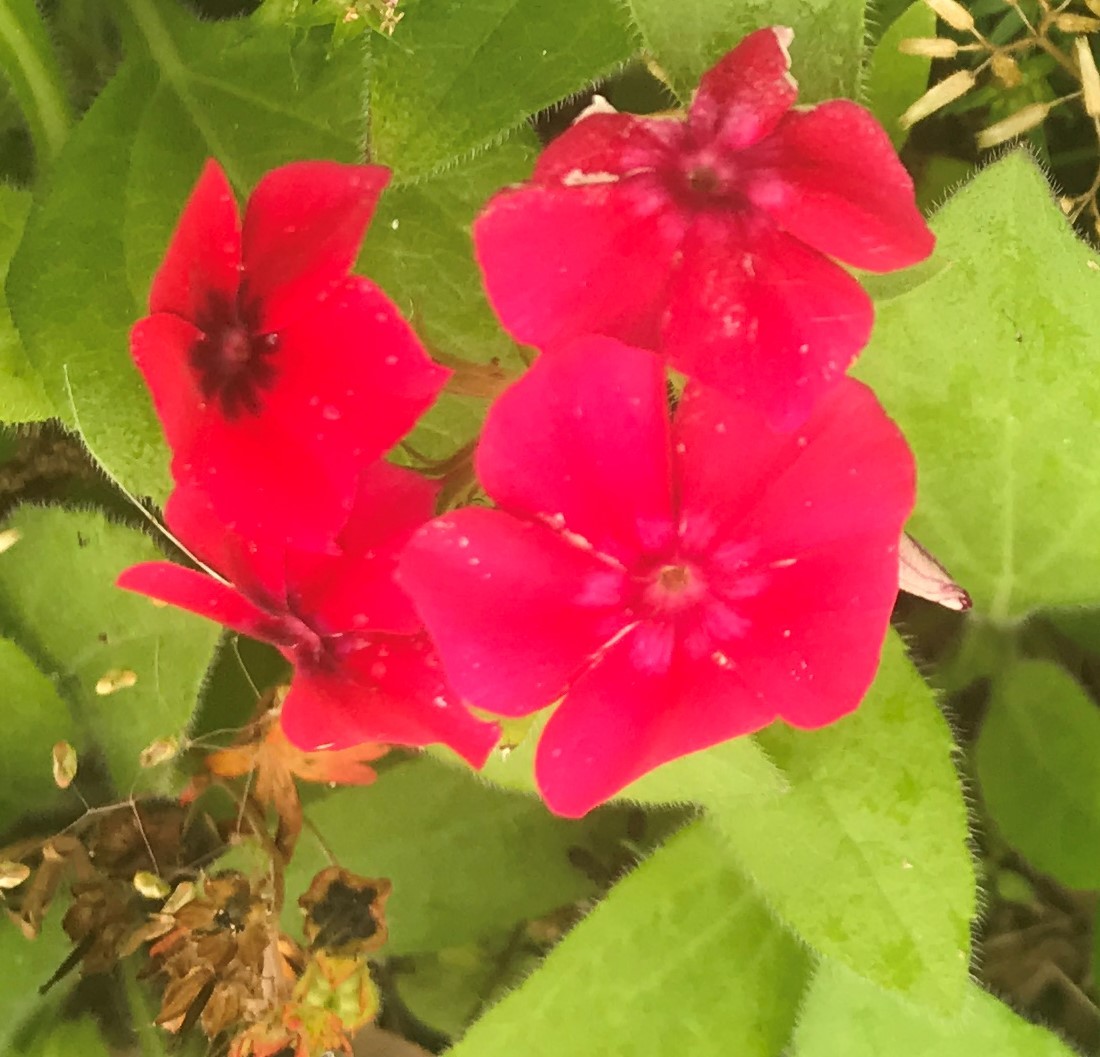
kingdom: Plantae
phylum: Tracheophyta
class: Magnoliopsida
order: Ericales
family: Polemoniaceae
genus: Phlox
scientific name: Phlox drummondii
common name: Drummond's phlox
